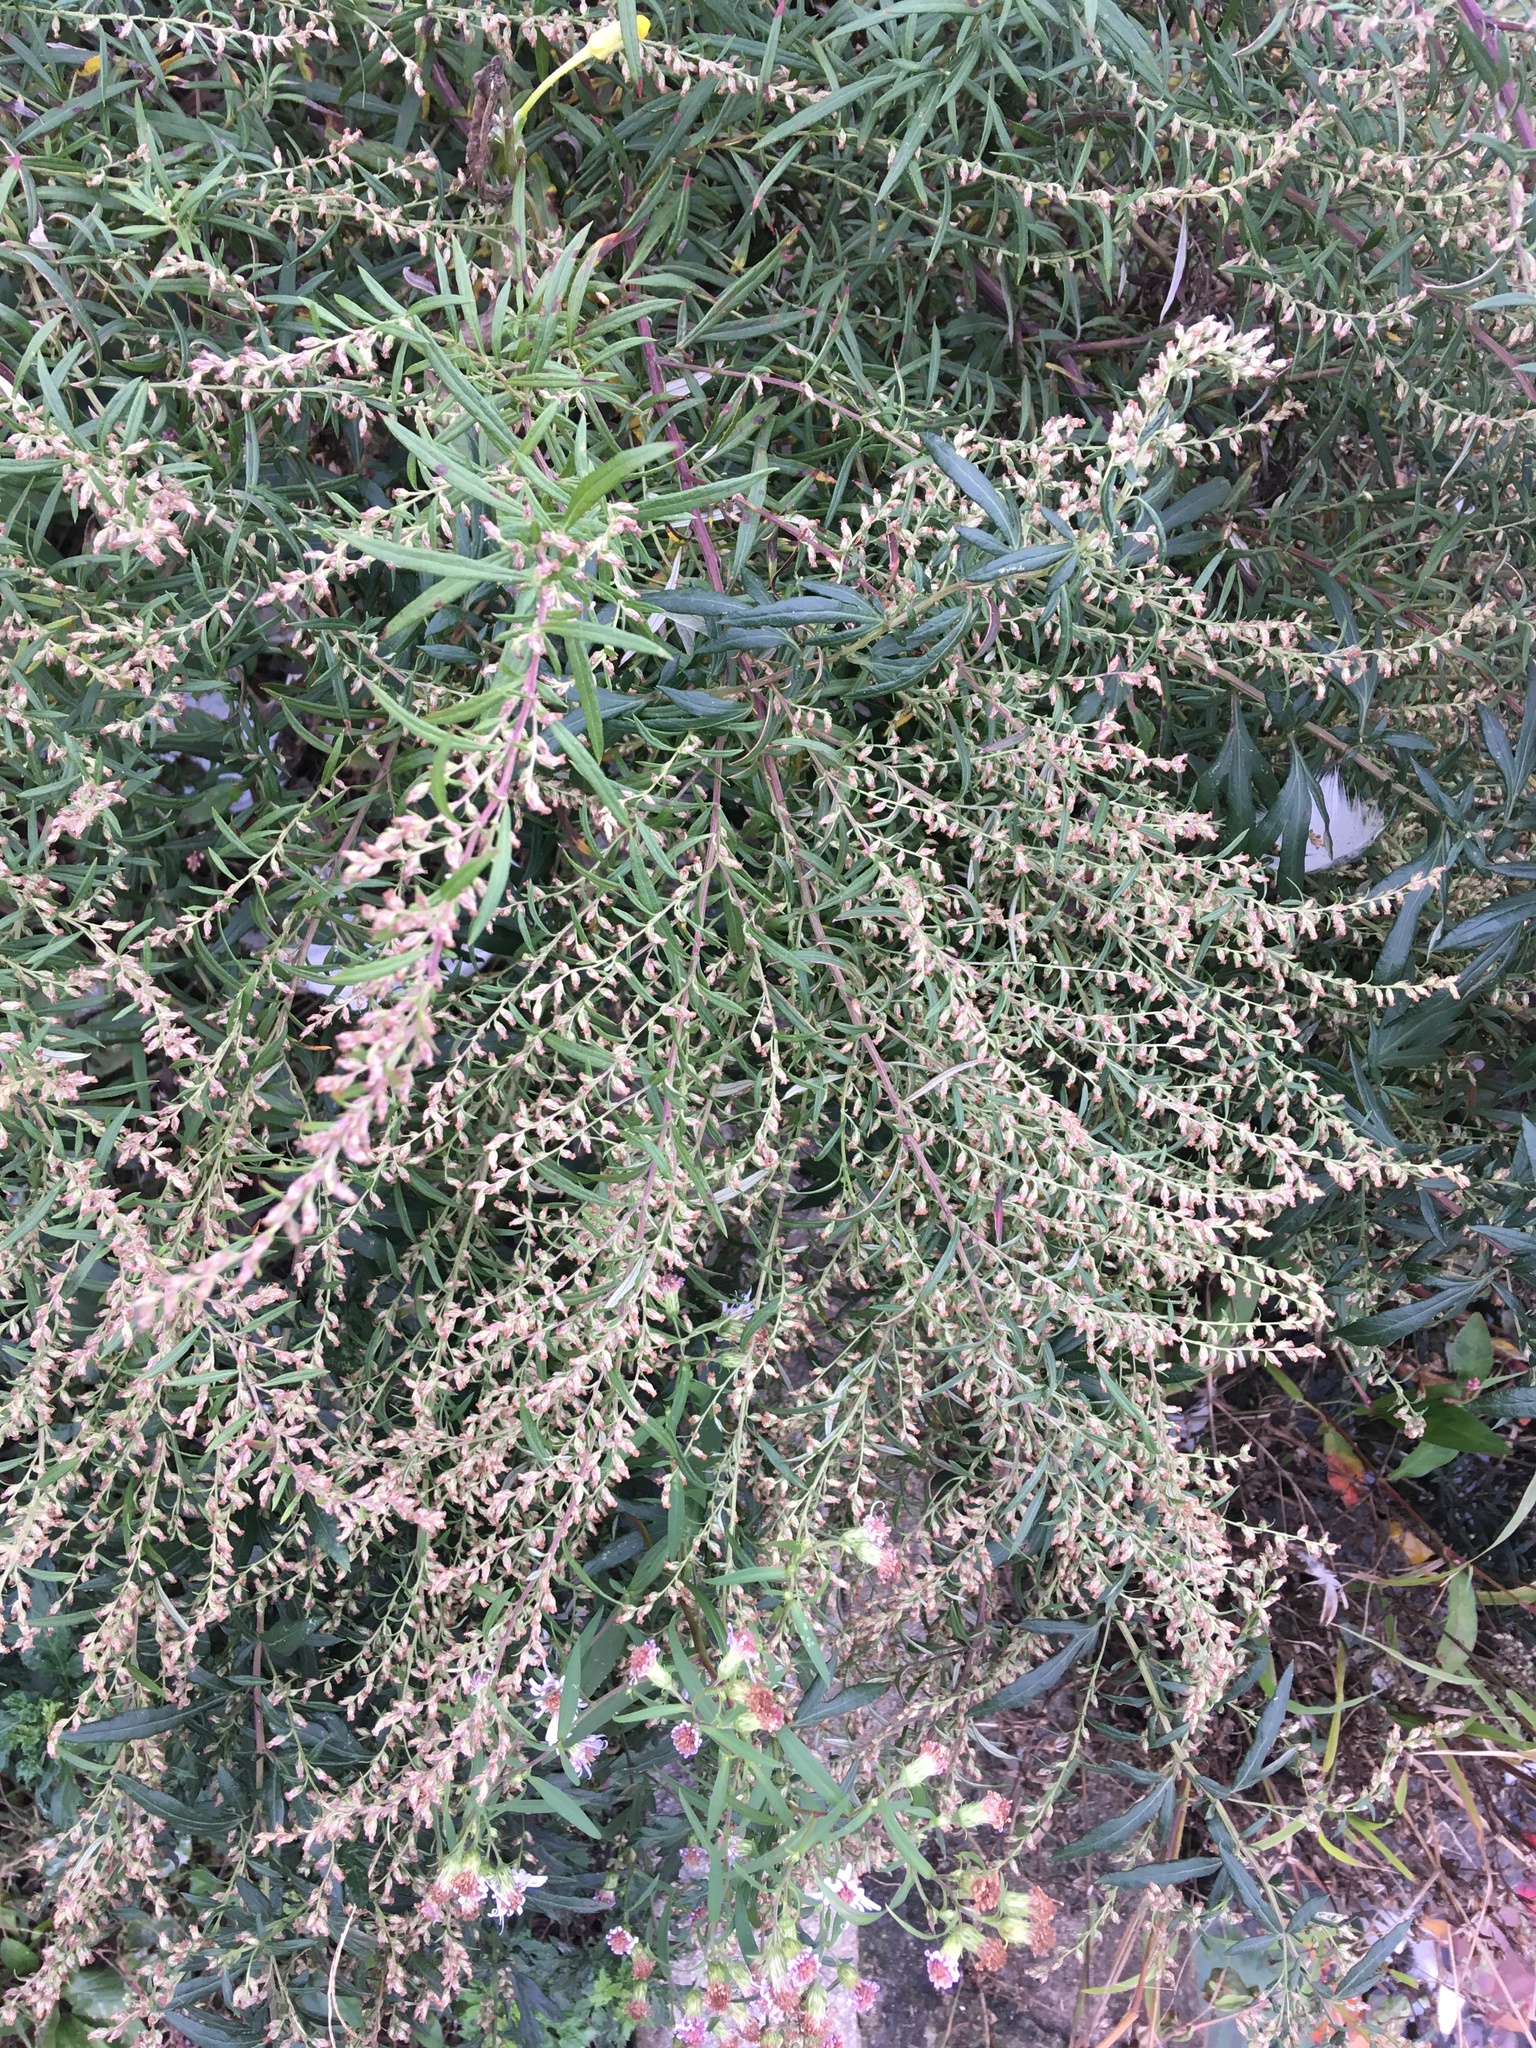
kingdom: Plantae
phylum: Tracheophyta
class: Magnoliopsida
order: Asterales
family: Asteraceae
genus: Artemisia
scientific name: Artemisia vulgaris
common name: Mugwort
